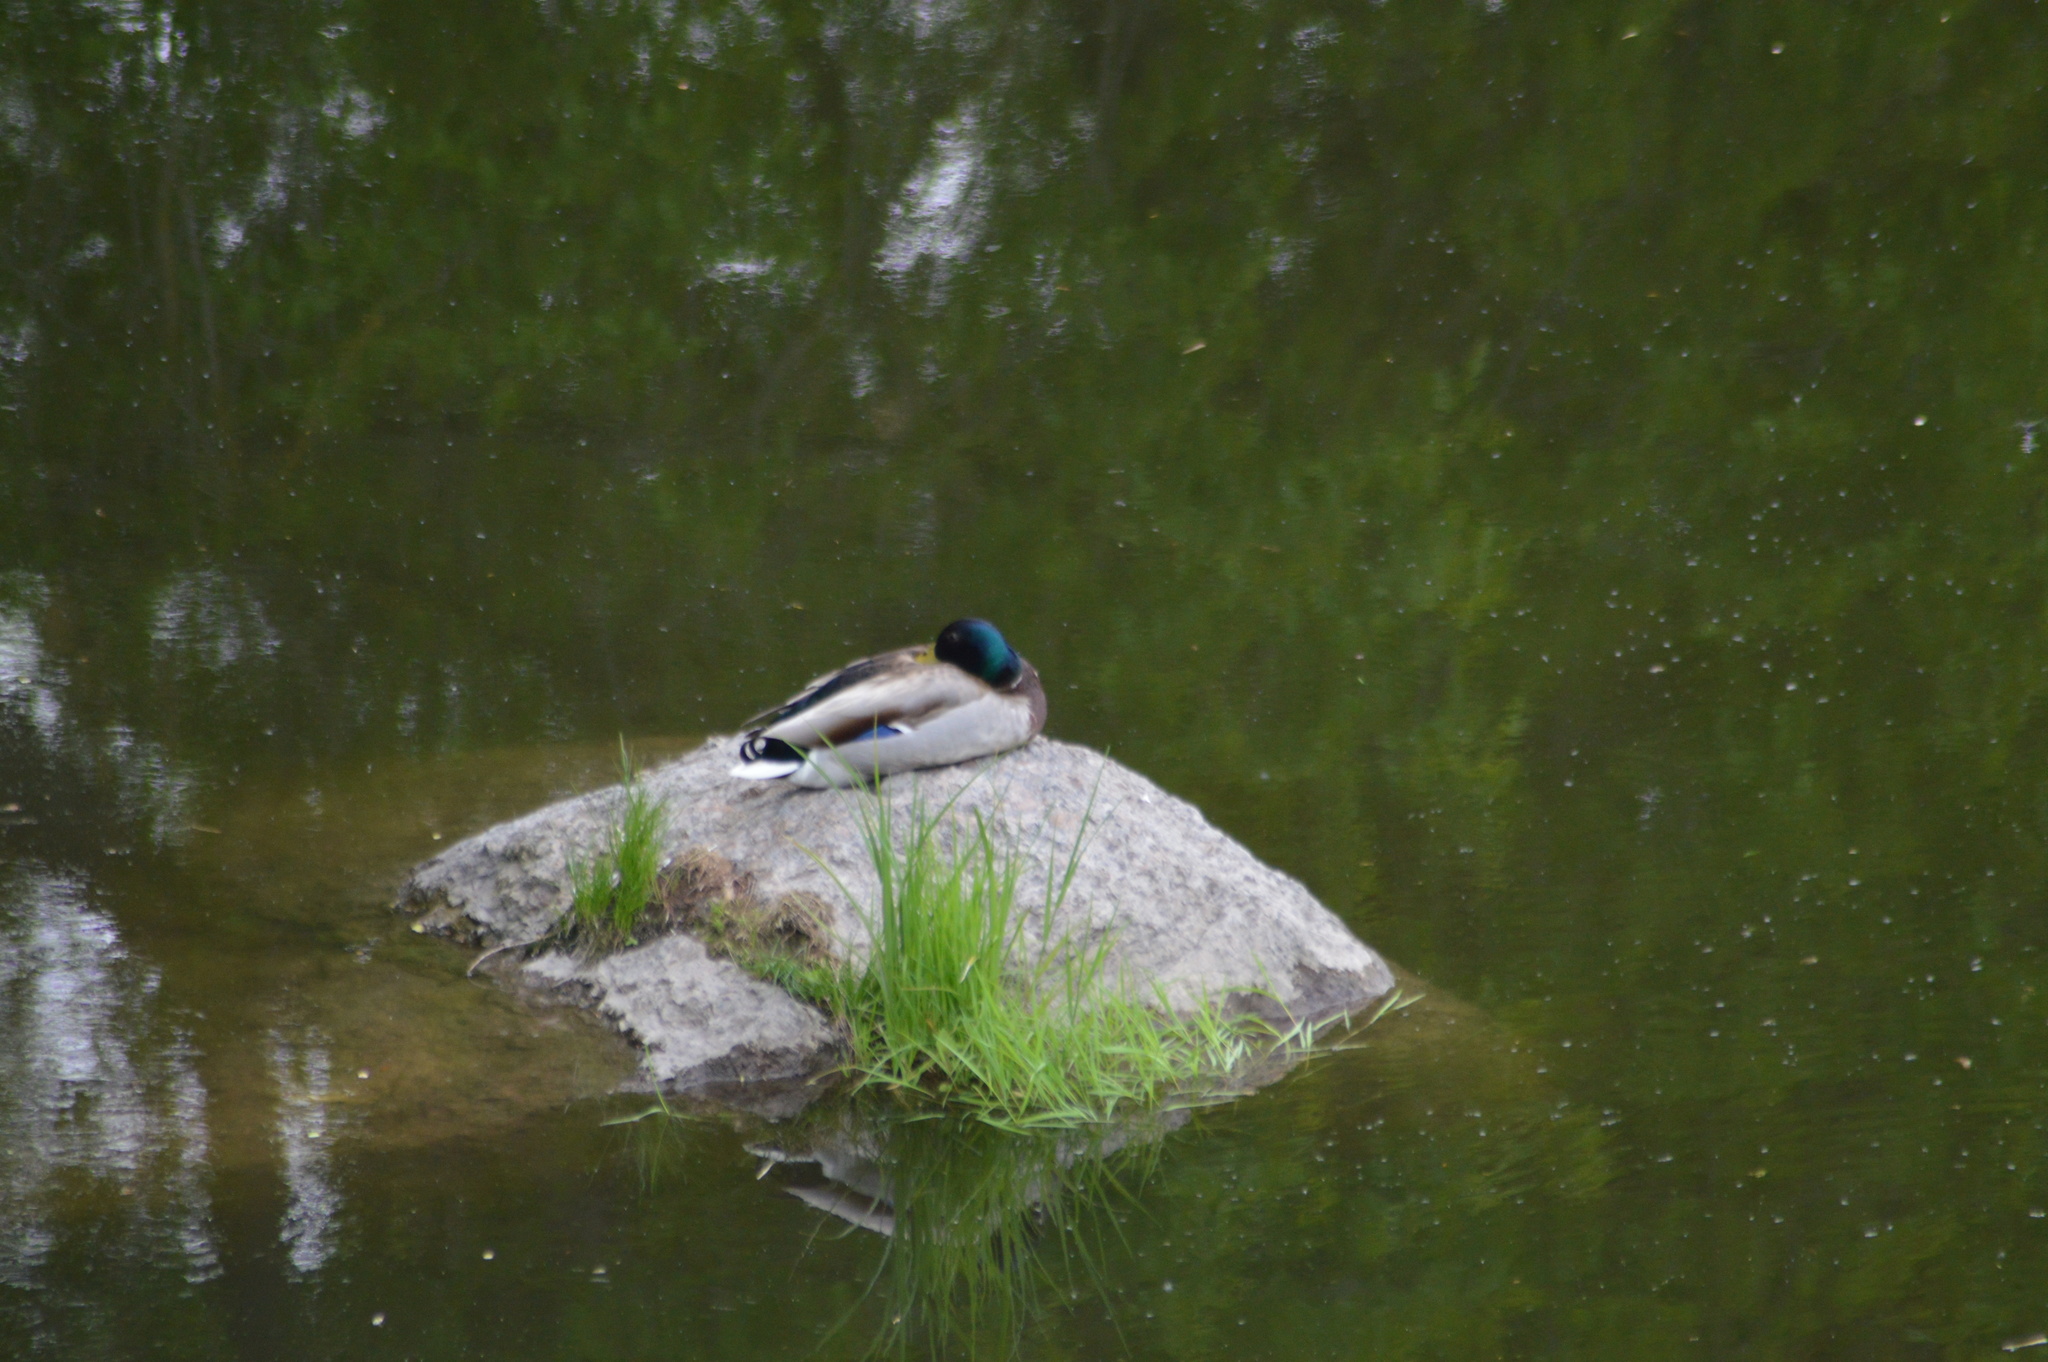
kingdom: Animalia
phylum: Chordata
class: Aves
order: Anseriformes
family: Anatidae
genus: Anas
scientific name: Anas platyrhynchos
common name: Mallard
